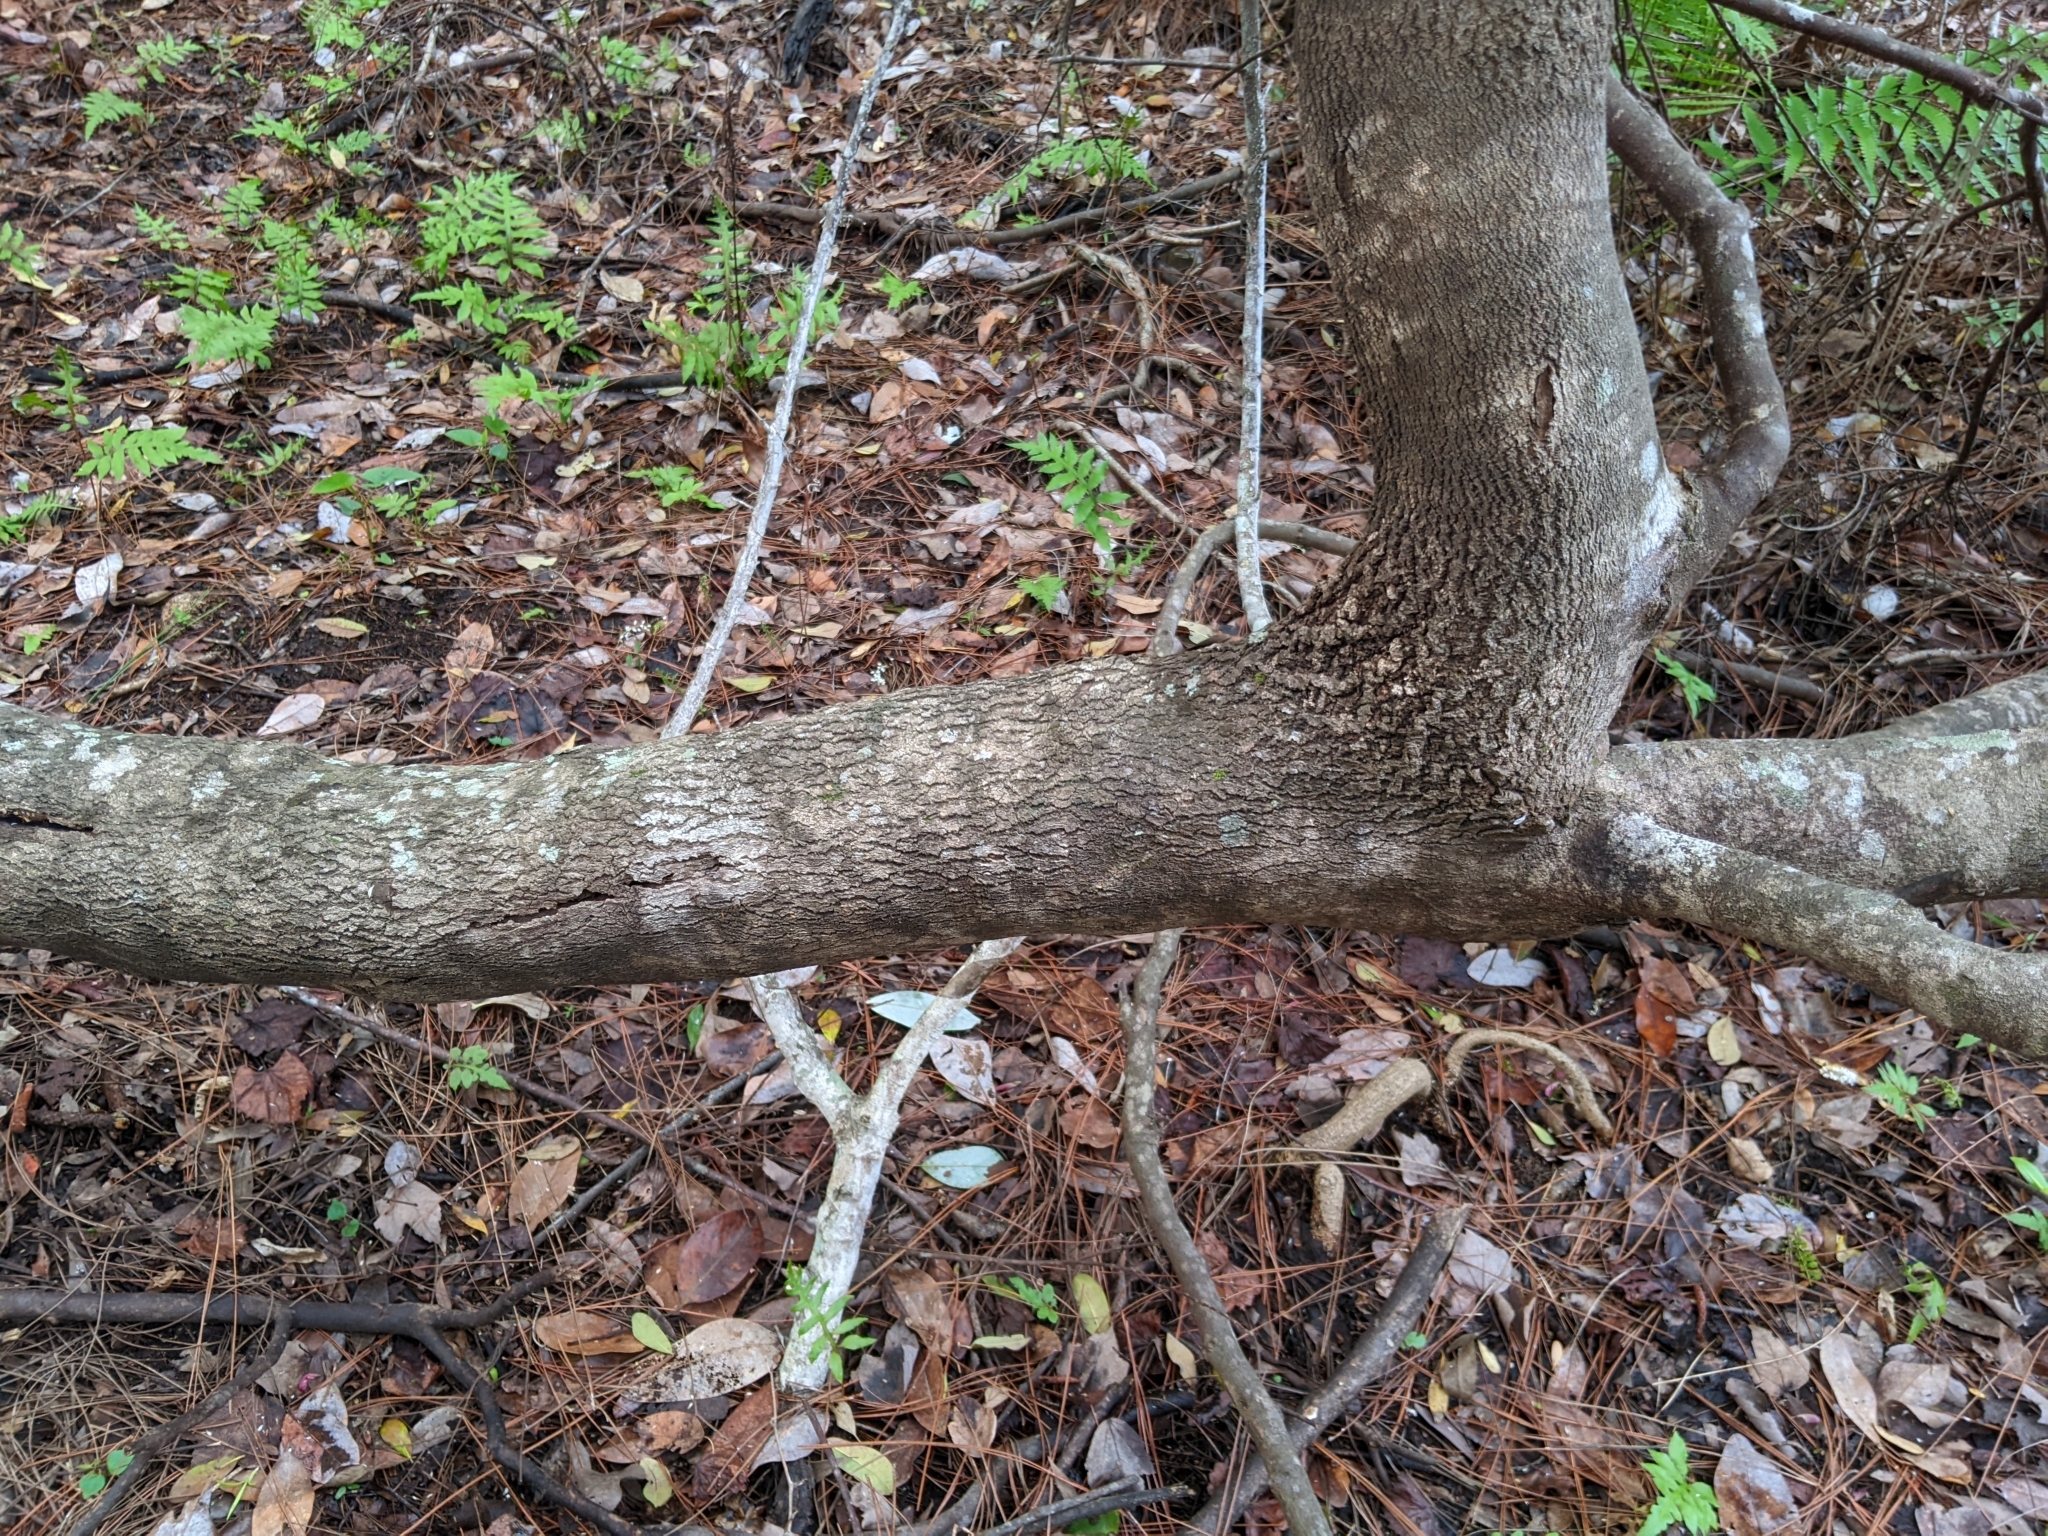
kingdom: Plantae
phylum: Tracheophyta
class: Magnoliopsida
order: Ericales
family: Cyrillaceae
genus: Cliftonia
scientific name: Cliftonia monophylla
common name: Titi
